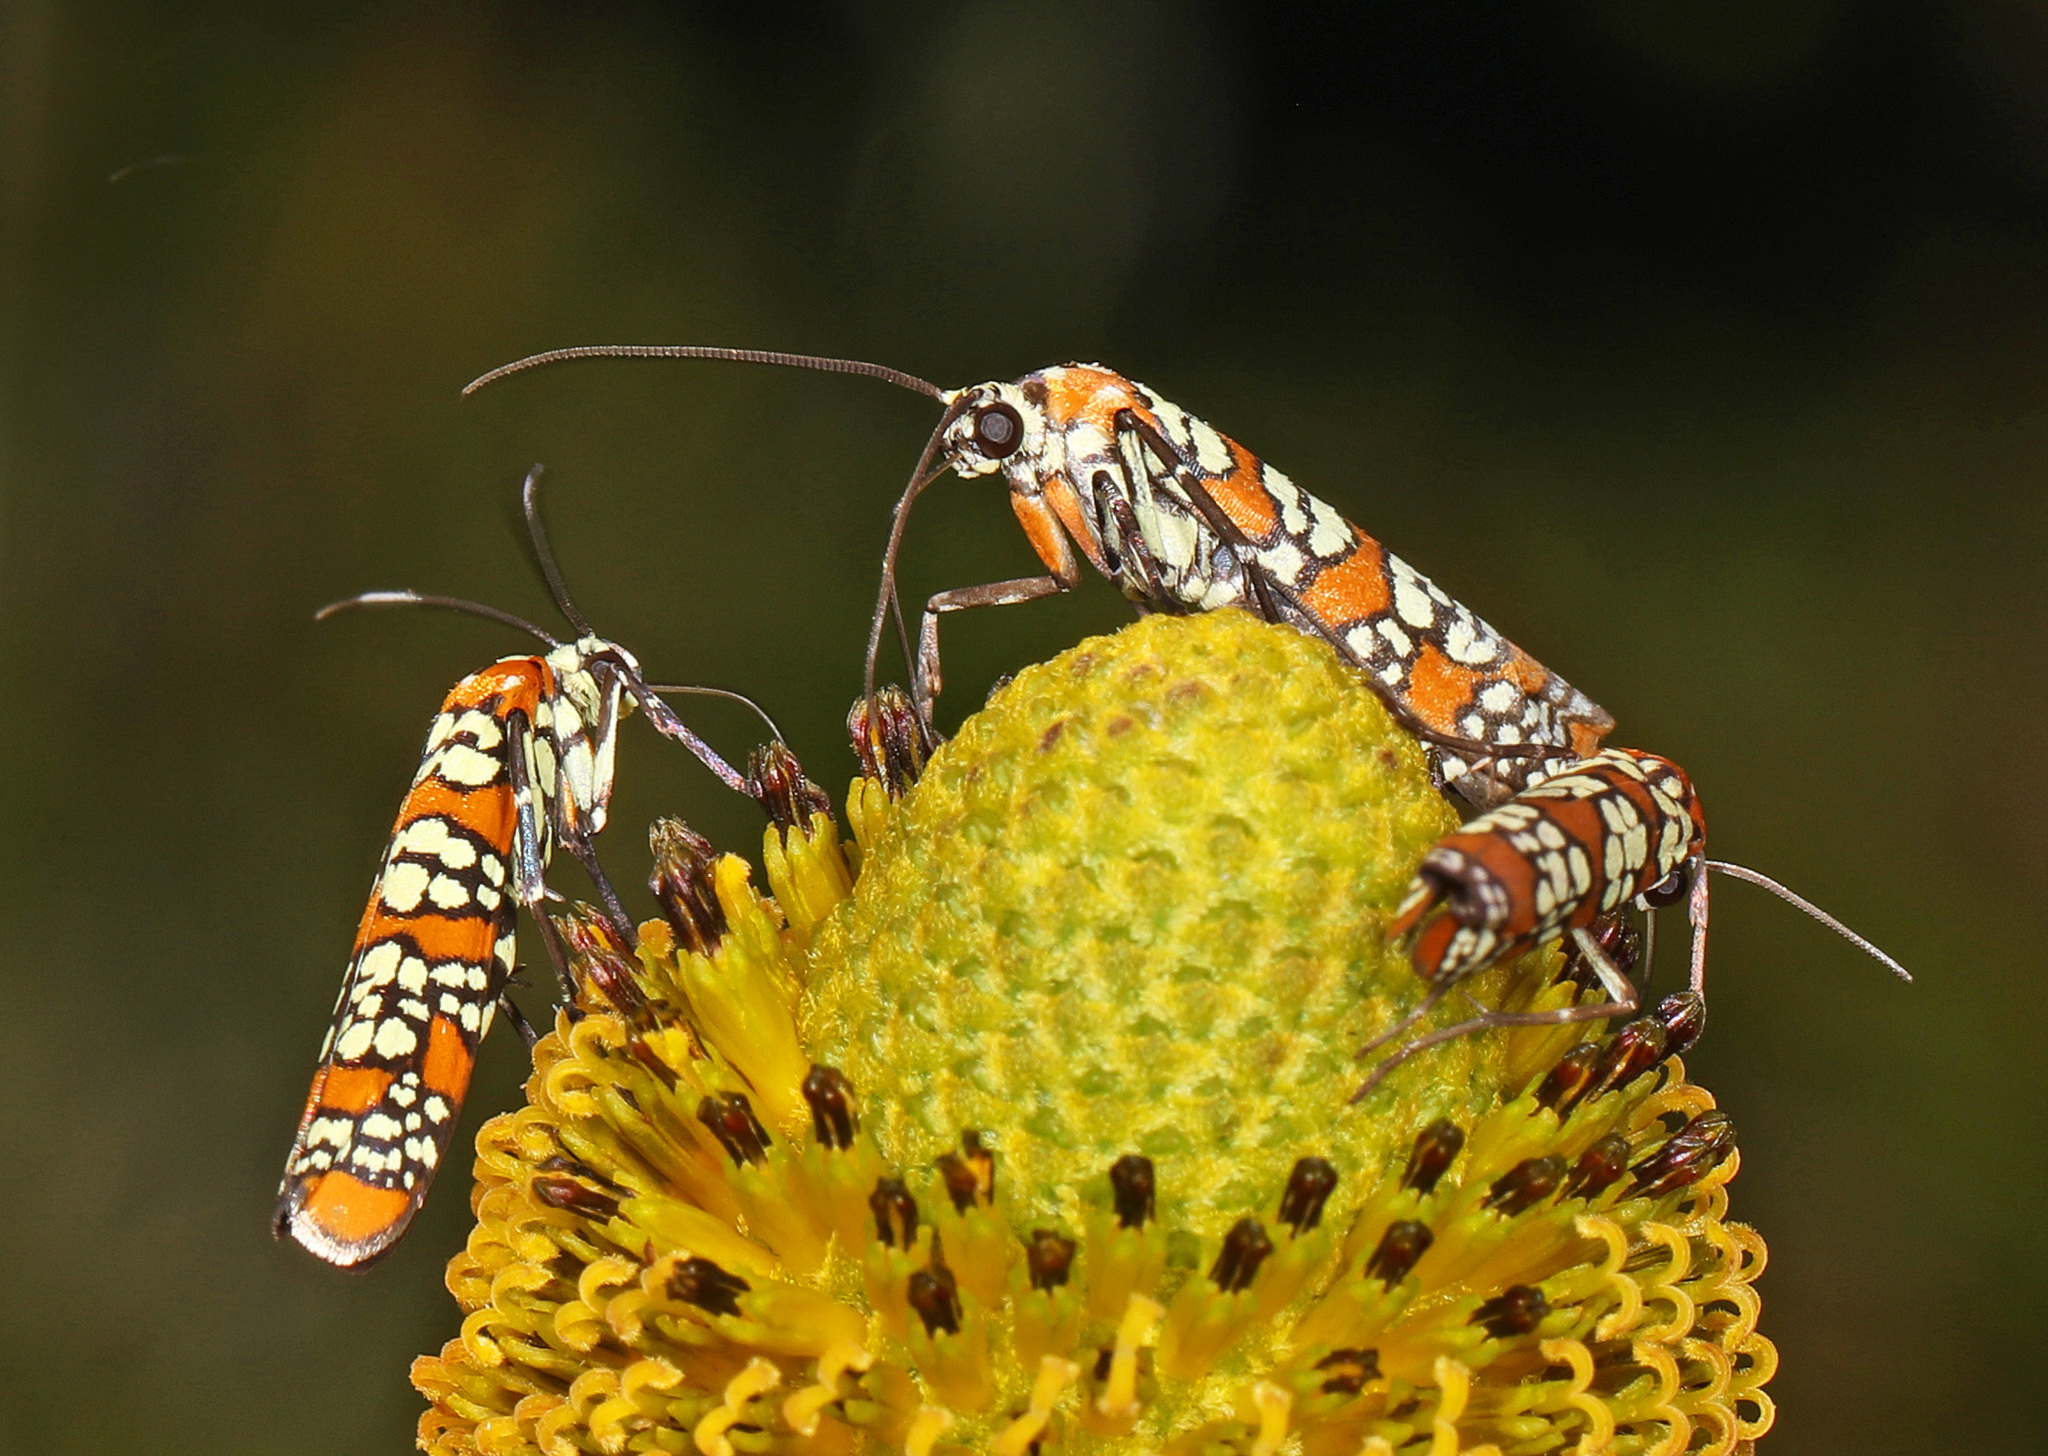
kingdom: Animalia
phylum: Arthropoda
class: Insecta
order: Lepidoptera
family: Attevidae
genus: Atteva
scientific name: Atteva punctella
